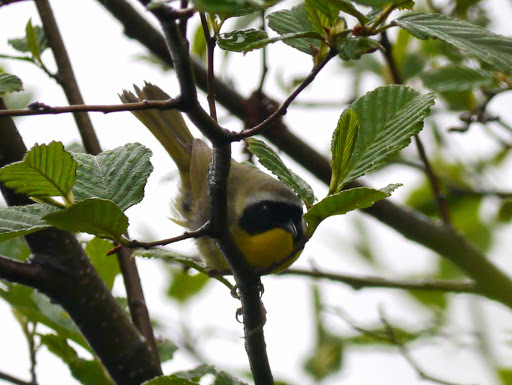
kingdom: Animalia
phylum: Chordata
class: Aves
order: Passeriformes
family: Parulidae
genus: Geothlypis
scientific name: Geothlypis trichas
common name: Common yellowthroat
